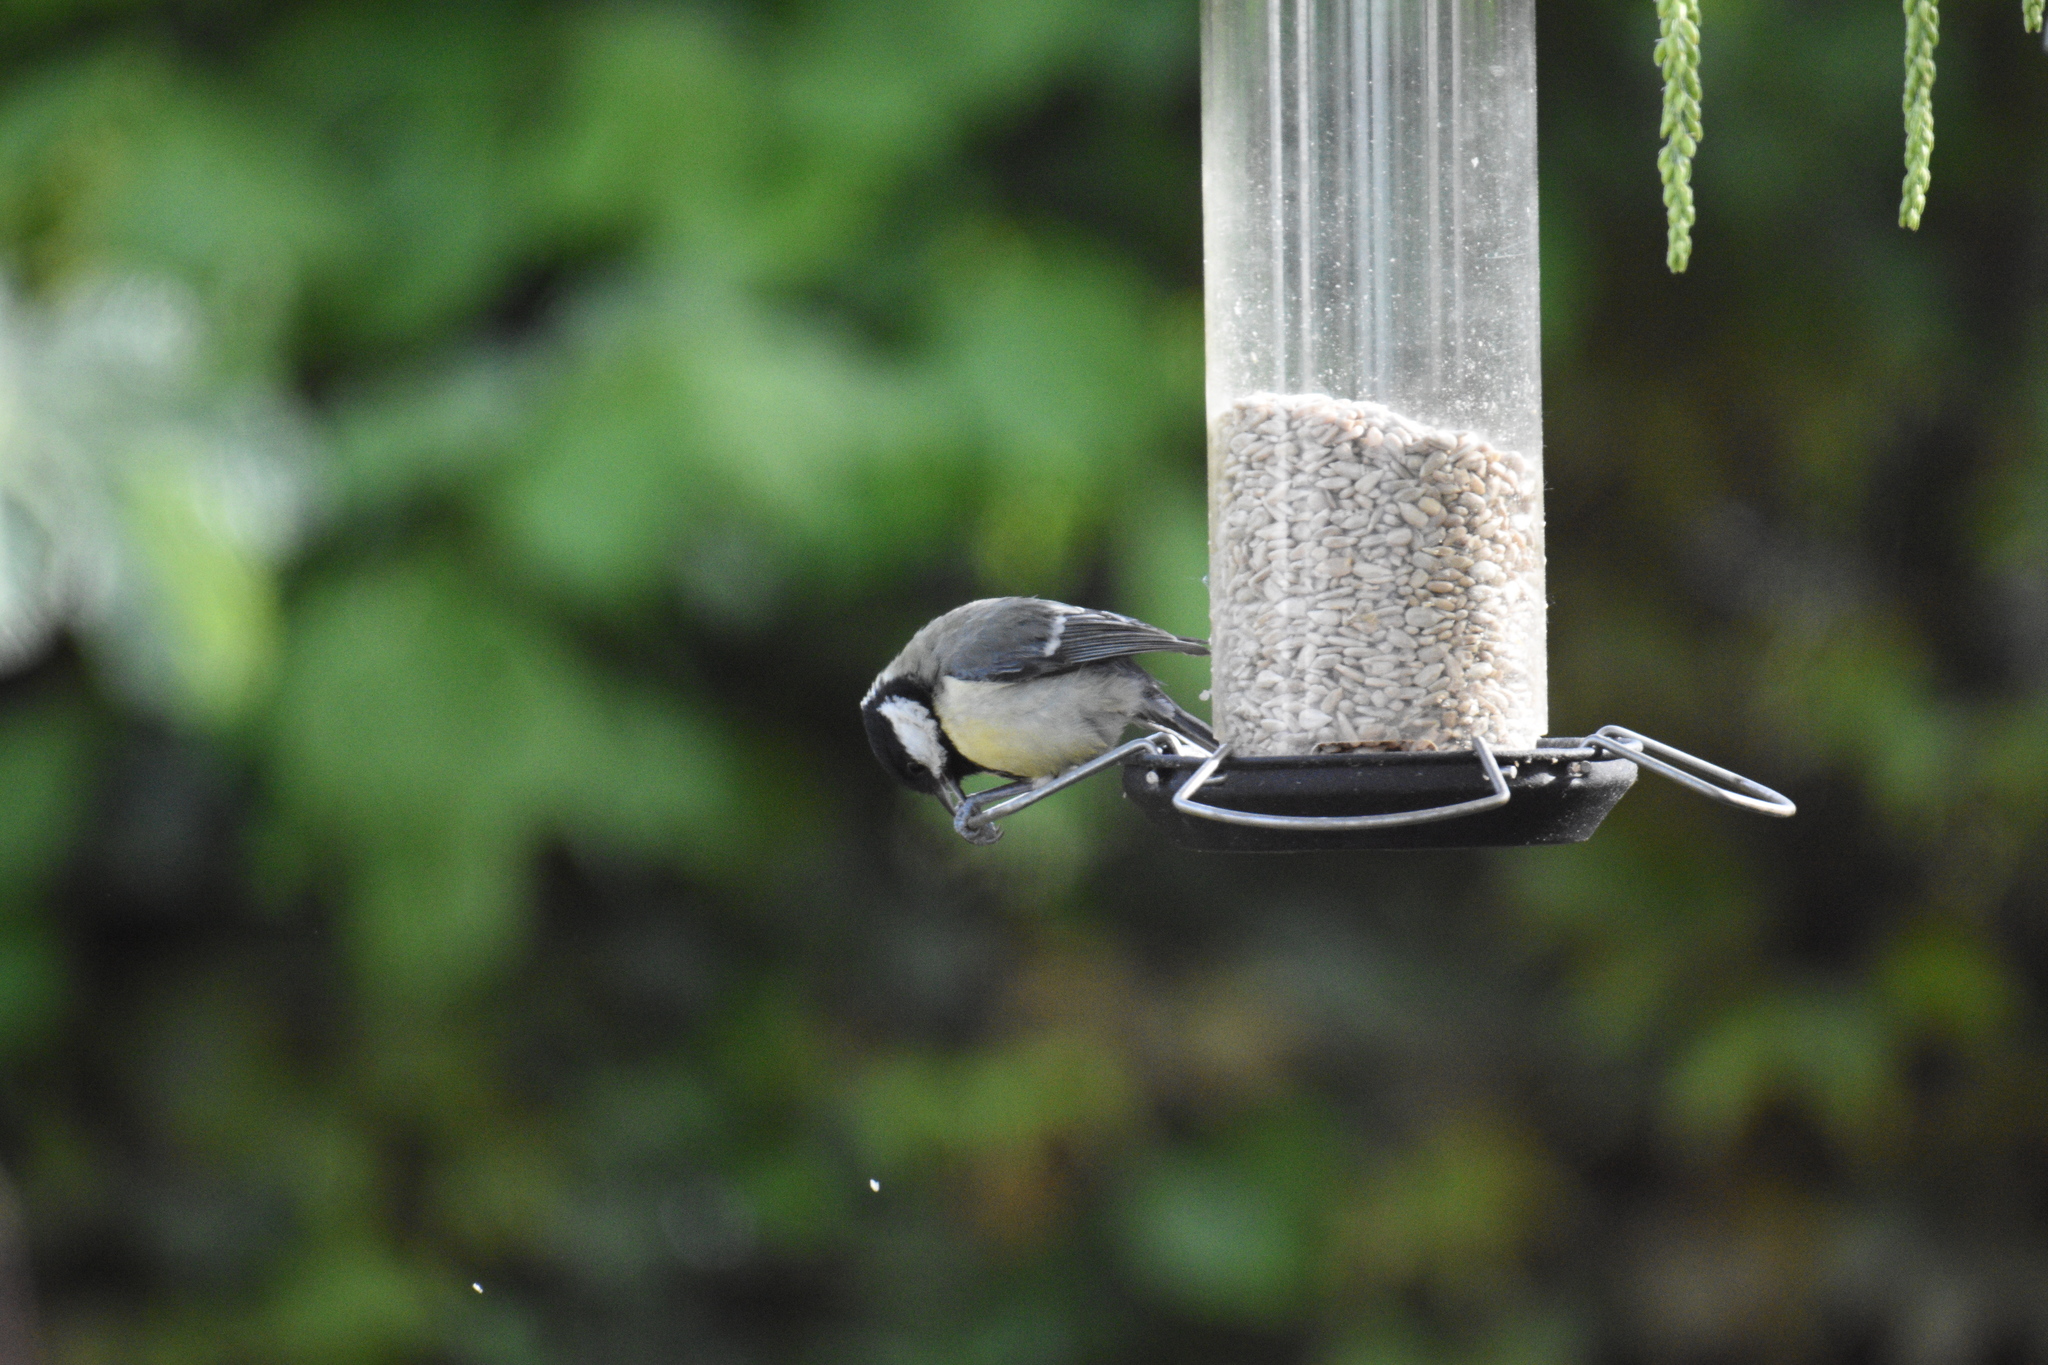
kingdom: Animalia
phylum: Chordata
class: Aves
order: Passeriformes
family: Paridae
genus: Parus
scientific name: Parus major
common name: Great tit
